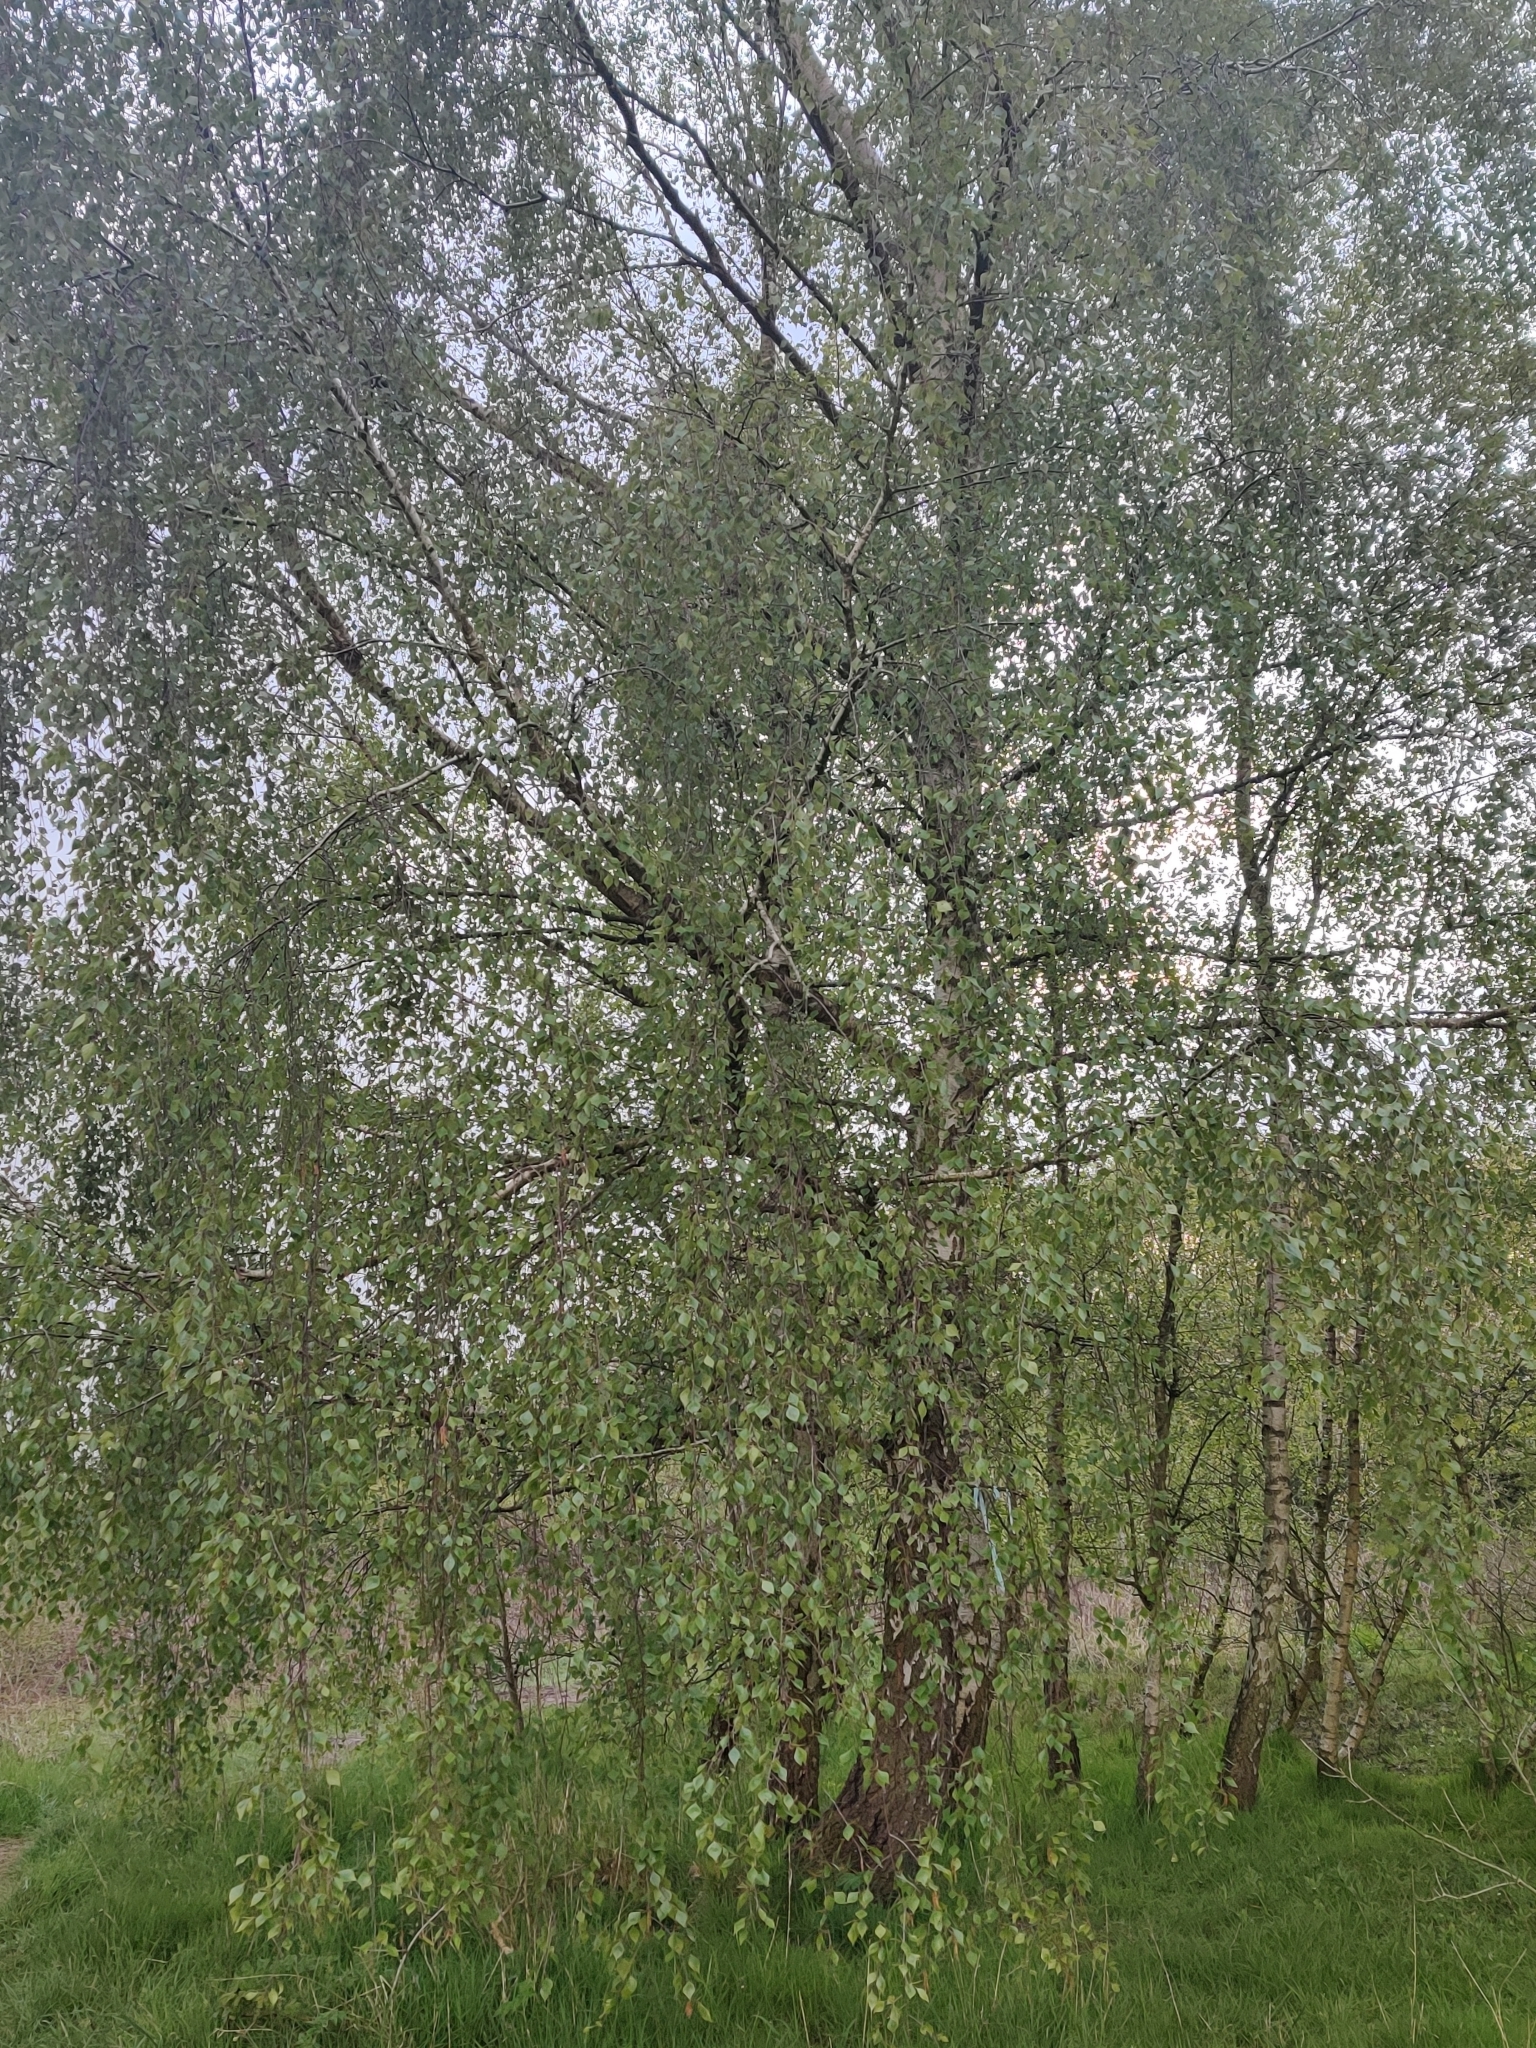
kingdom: Plantae
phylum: Tracheophyta
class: Magnoliopsida
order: Fagales
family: Betulaceae
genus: Betula
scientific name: Betula pendula
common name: Silver birch
